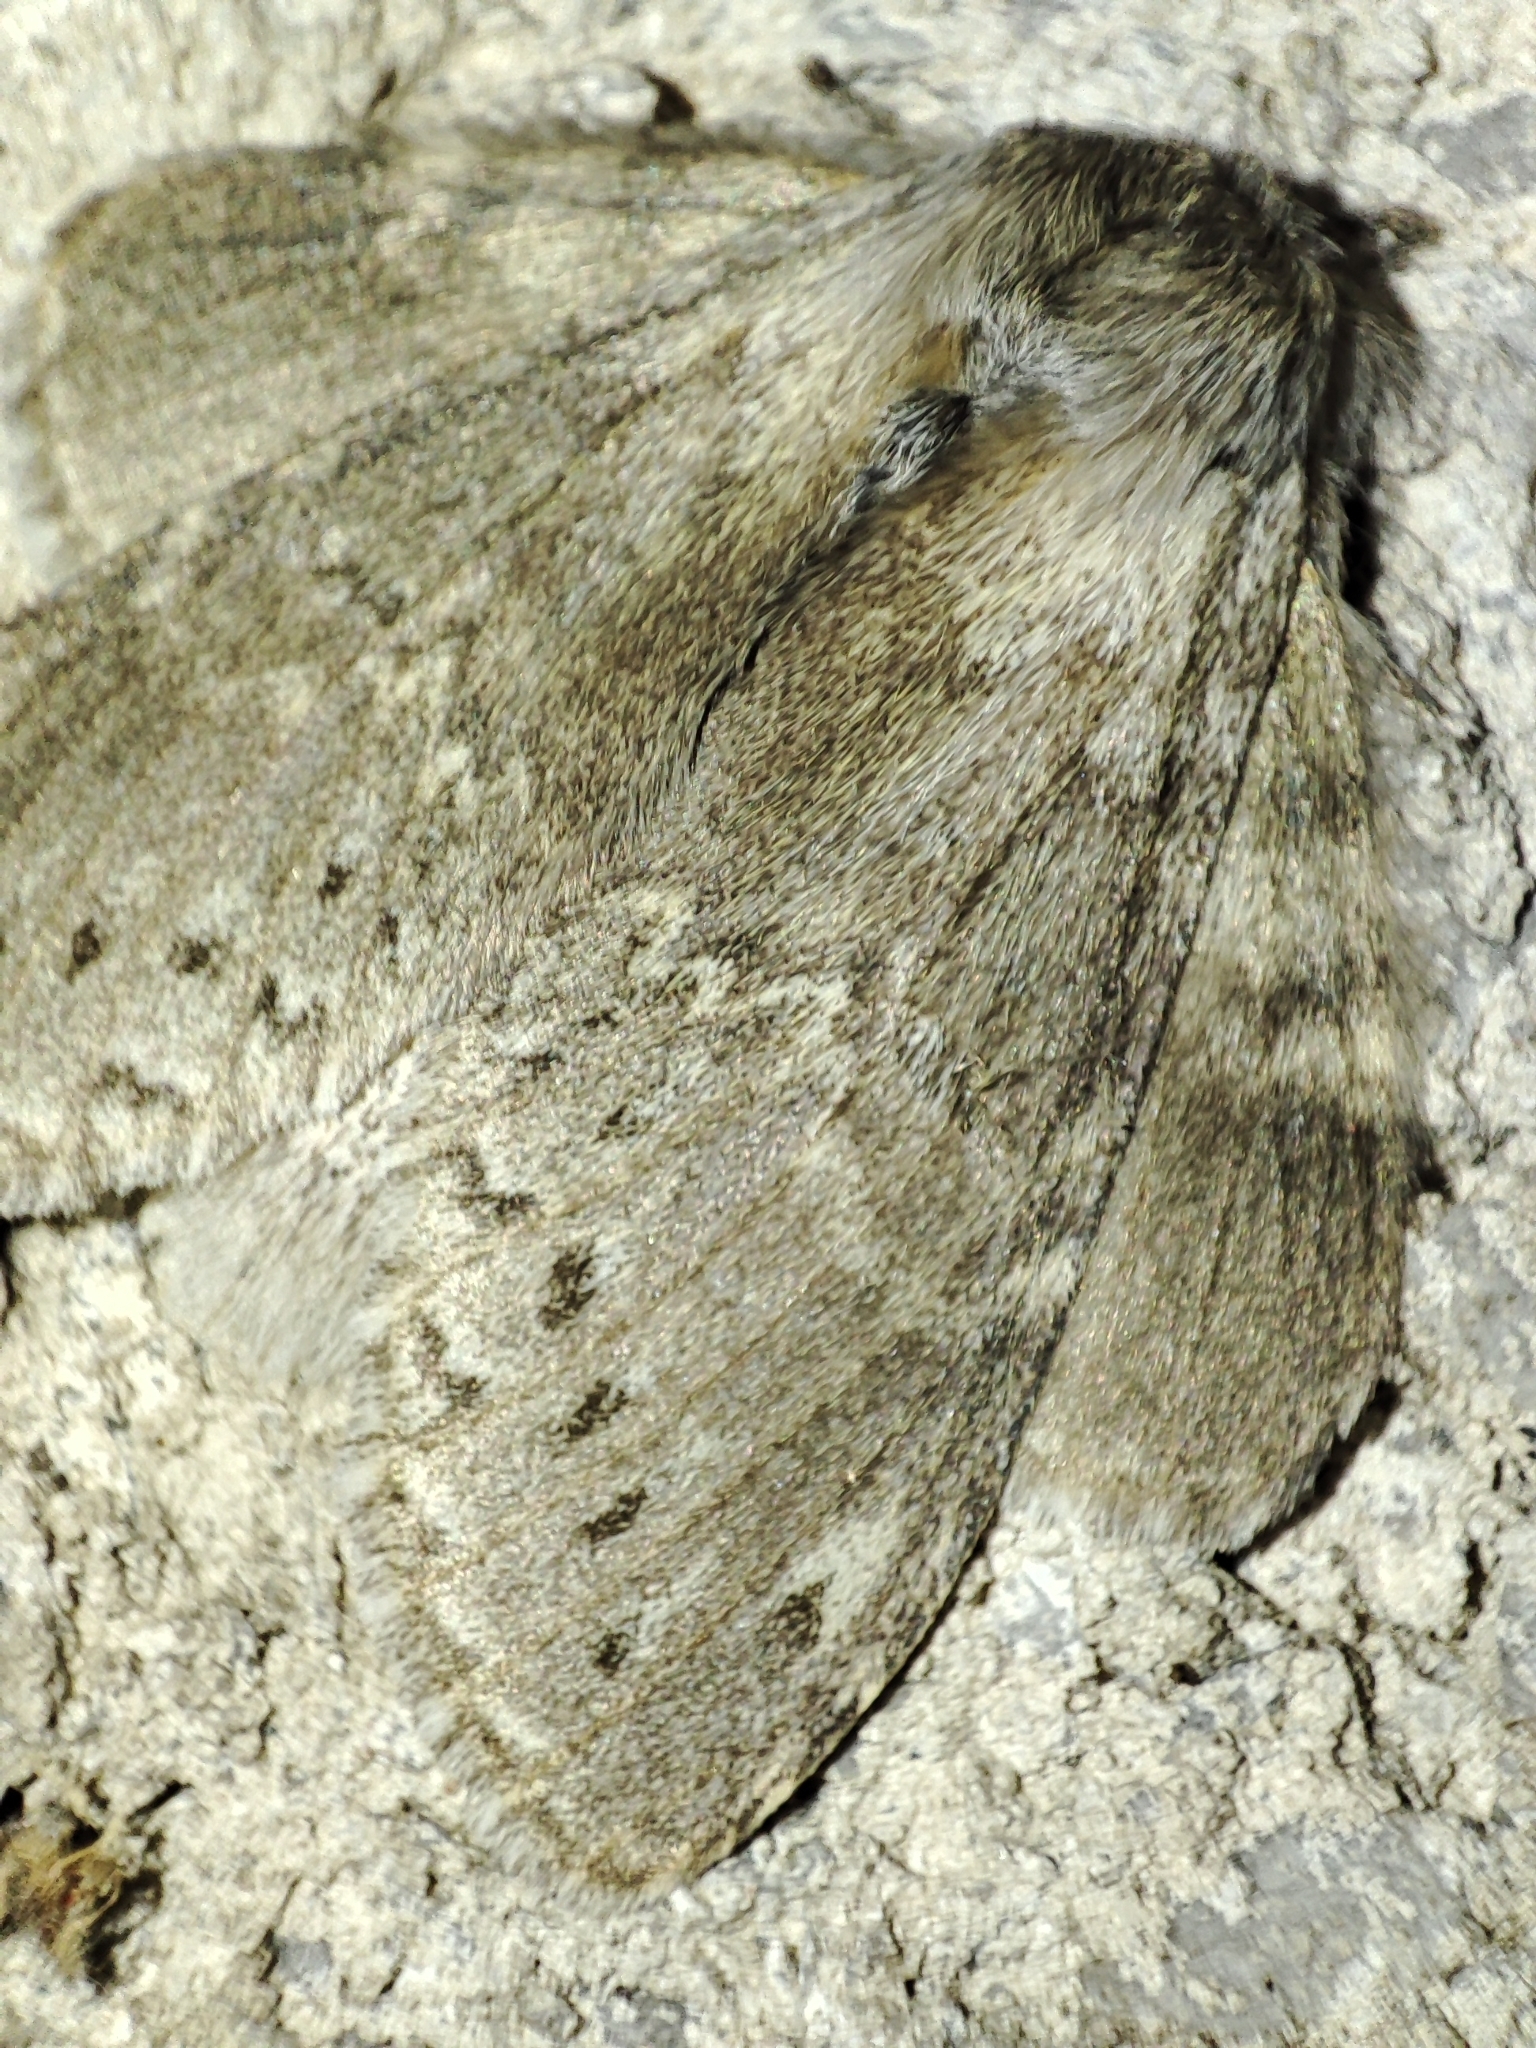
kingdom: Animalia
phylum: Arthropoda
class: Insecta
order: Lepidoptera
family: Notodontidae
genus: Stauropus
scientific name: Stauropus fagi
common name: Lobster moth
